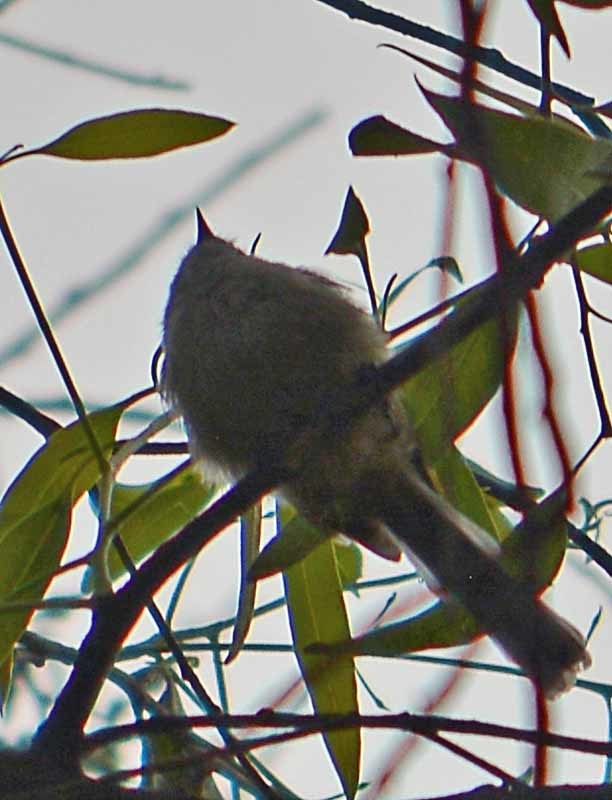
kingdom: Animalia
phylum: Chordata
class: Aves
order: Passeriformes
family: Aegithalidae
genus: Psaltriparus
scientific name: Psaltriparus minimus
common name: American bushtit
